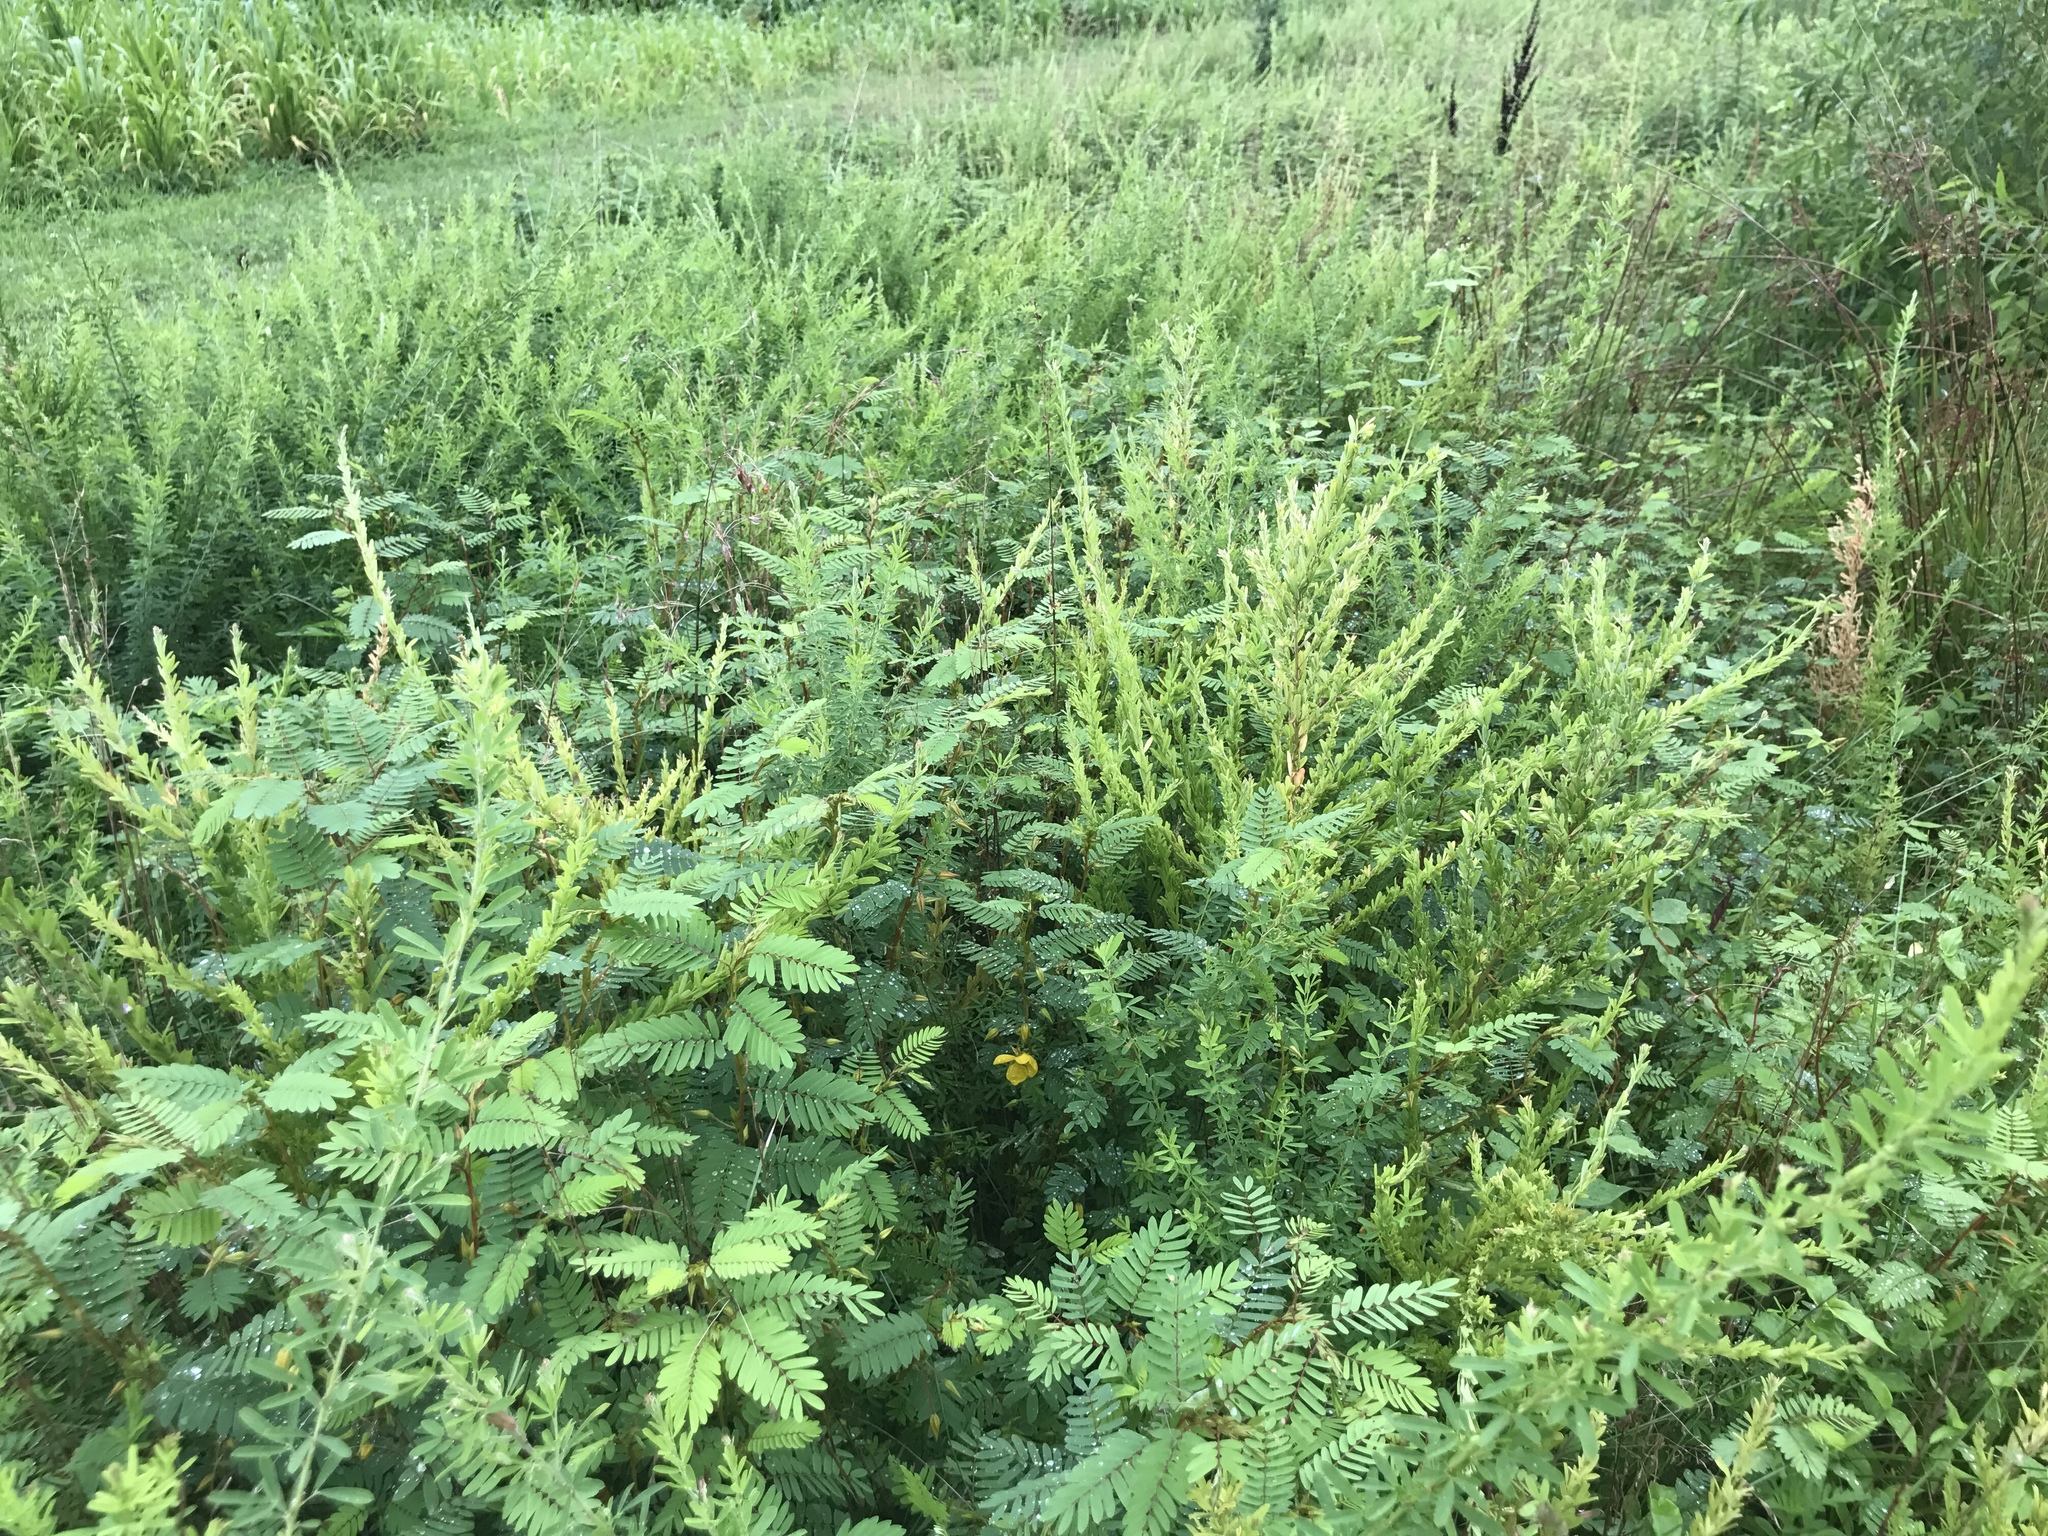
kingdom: Plantae
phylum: Tracheophyta
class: Magnoliopsida
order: Fabales
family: Fabaceae
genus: Chamaecrista
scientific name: Chamaecrista fasciculata
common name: Golden cassia
